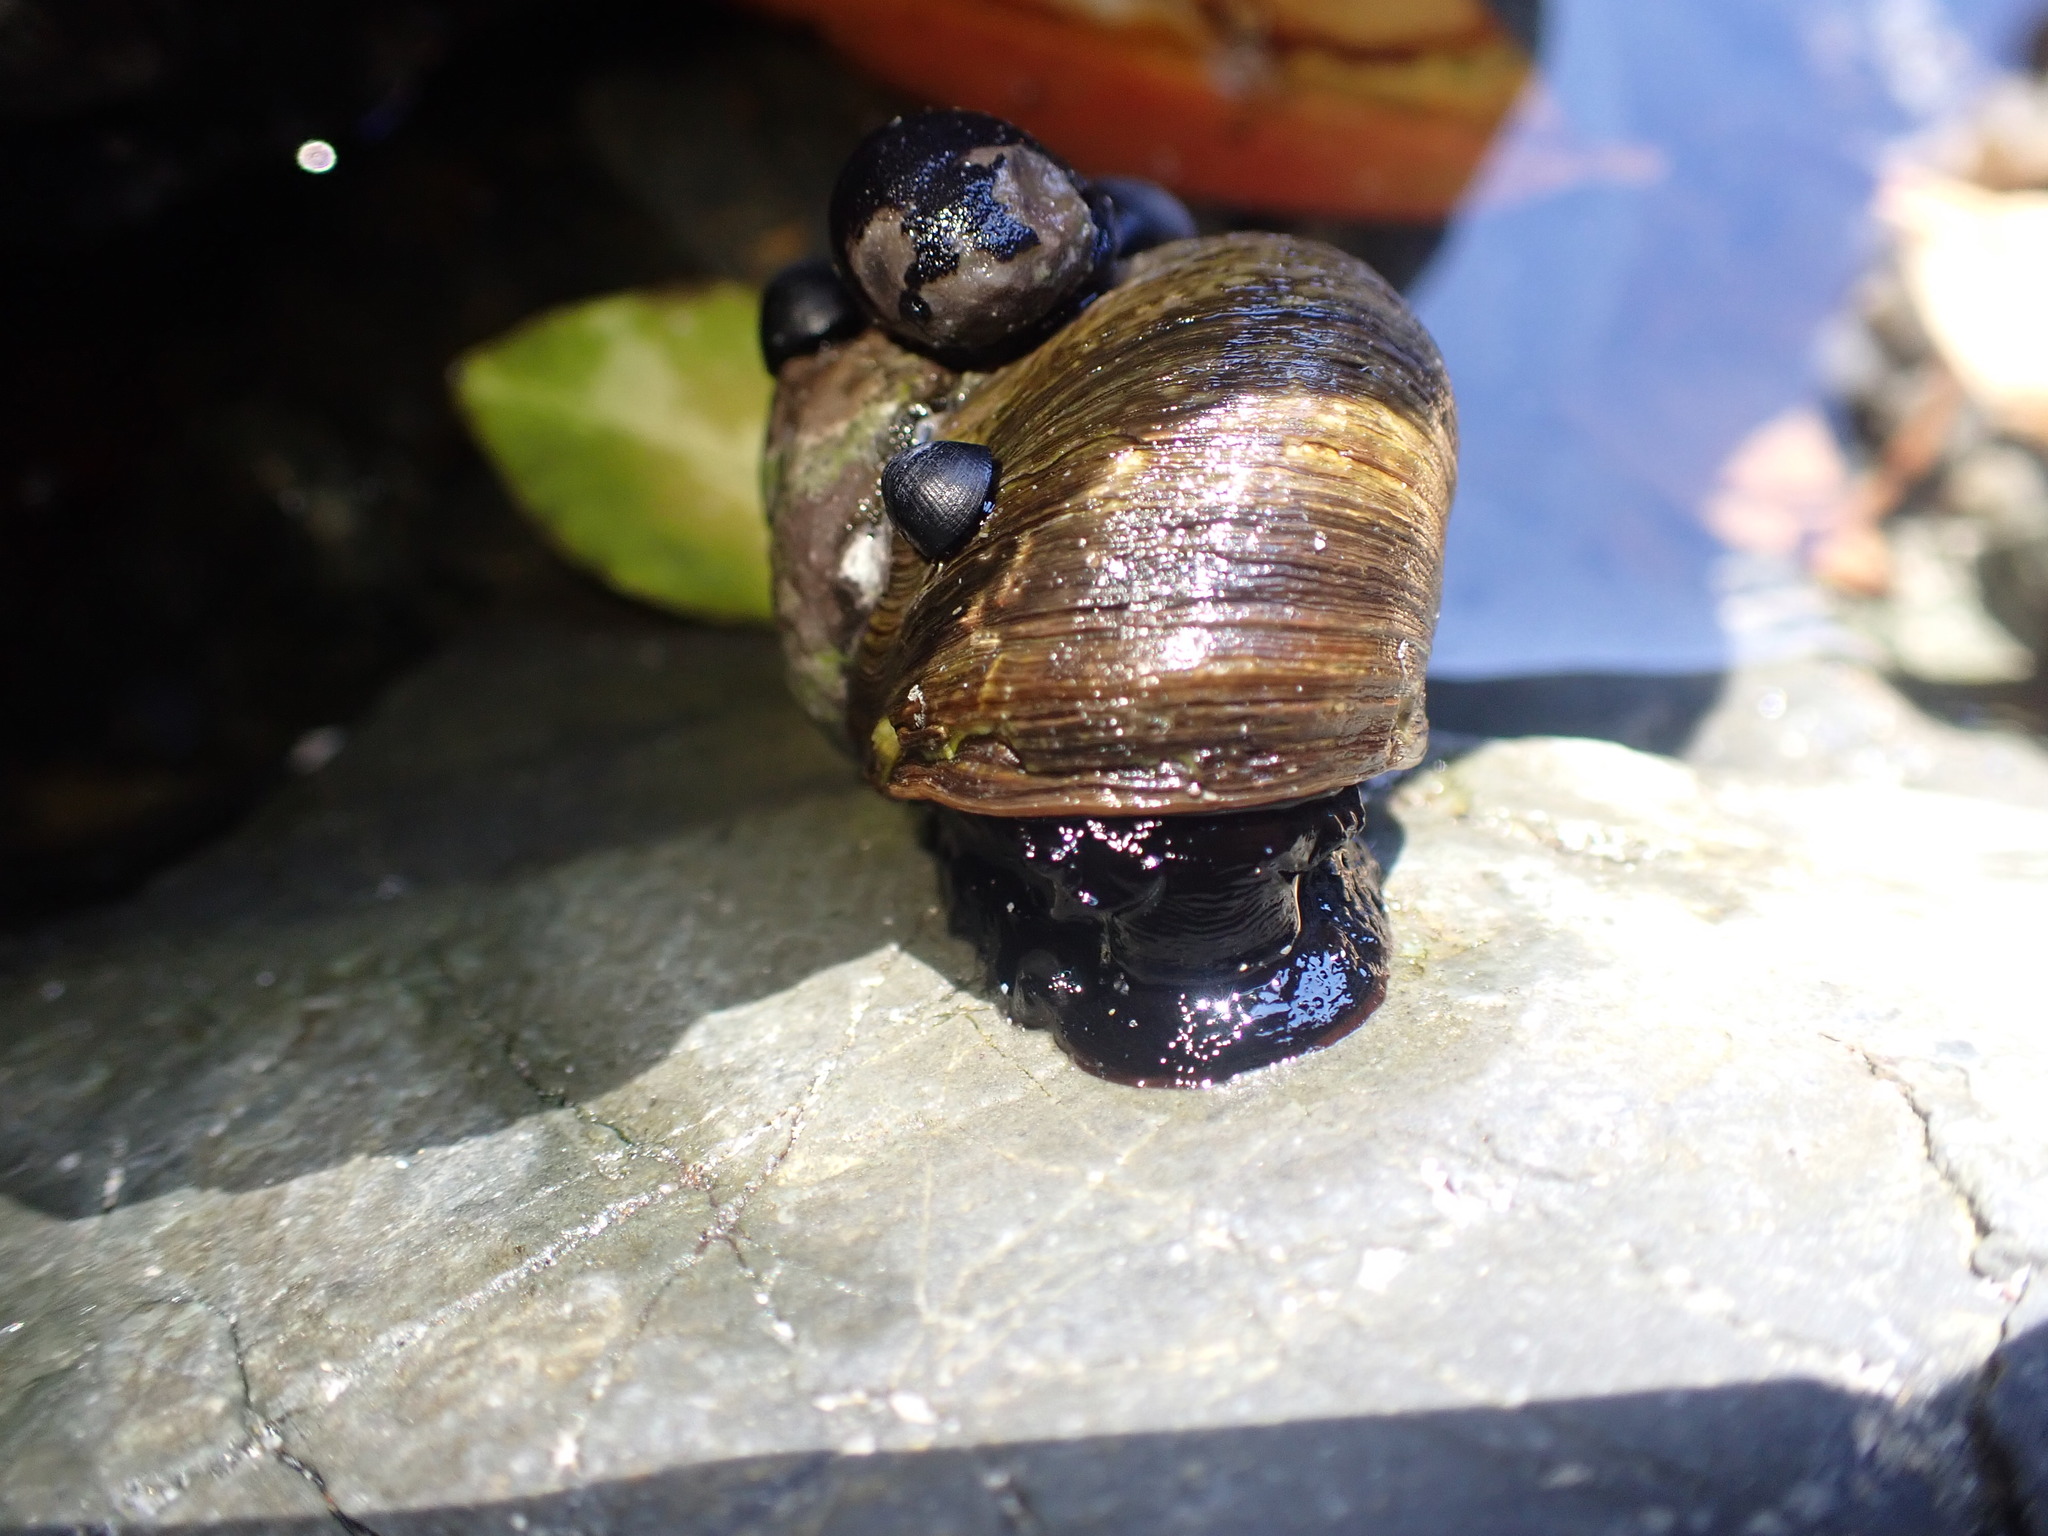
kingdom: Animalia
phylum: Mollusca
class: Gastropoda
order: Trochida
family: Turbinidae
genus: Lunella
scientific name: Lunella smaragda
